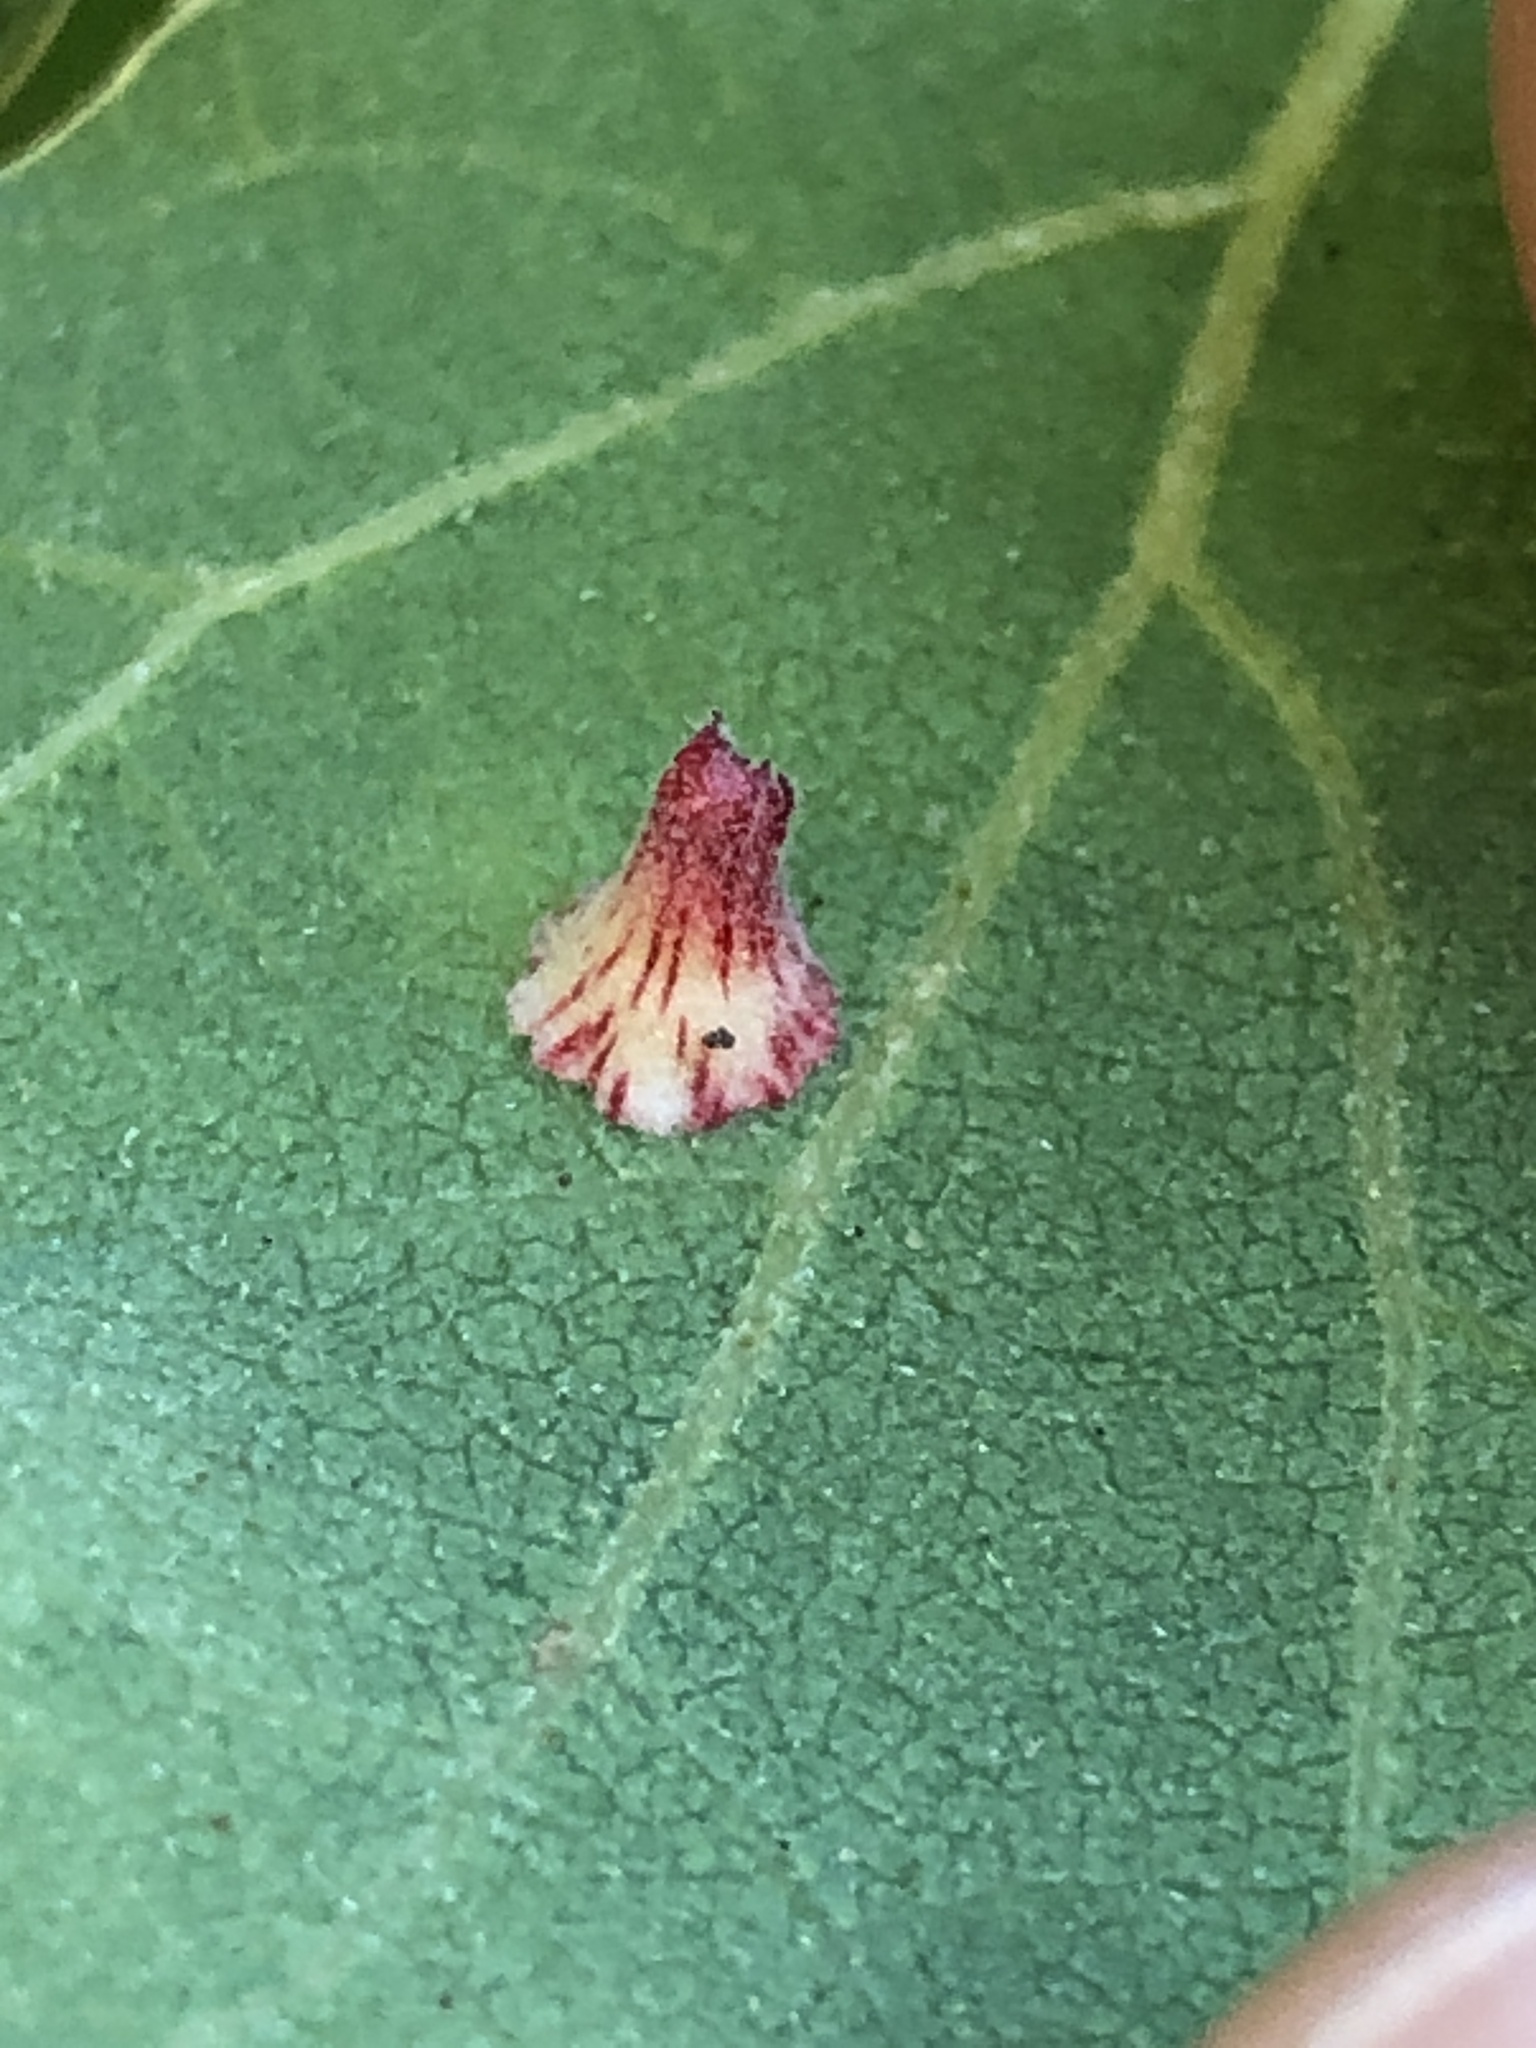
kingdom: Animalia
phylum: Arthropoda
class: Insecta
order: Hymenoptera
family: Cynipidae
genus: Andricus
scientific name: Andricus
